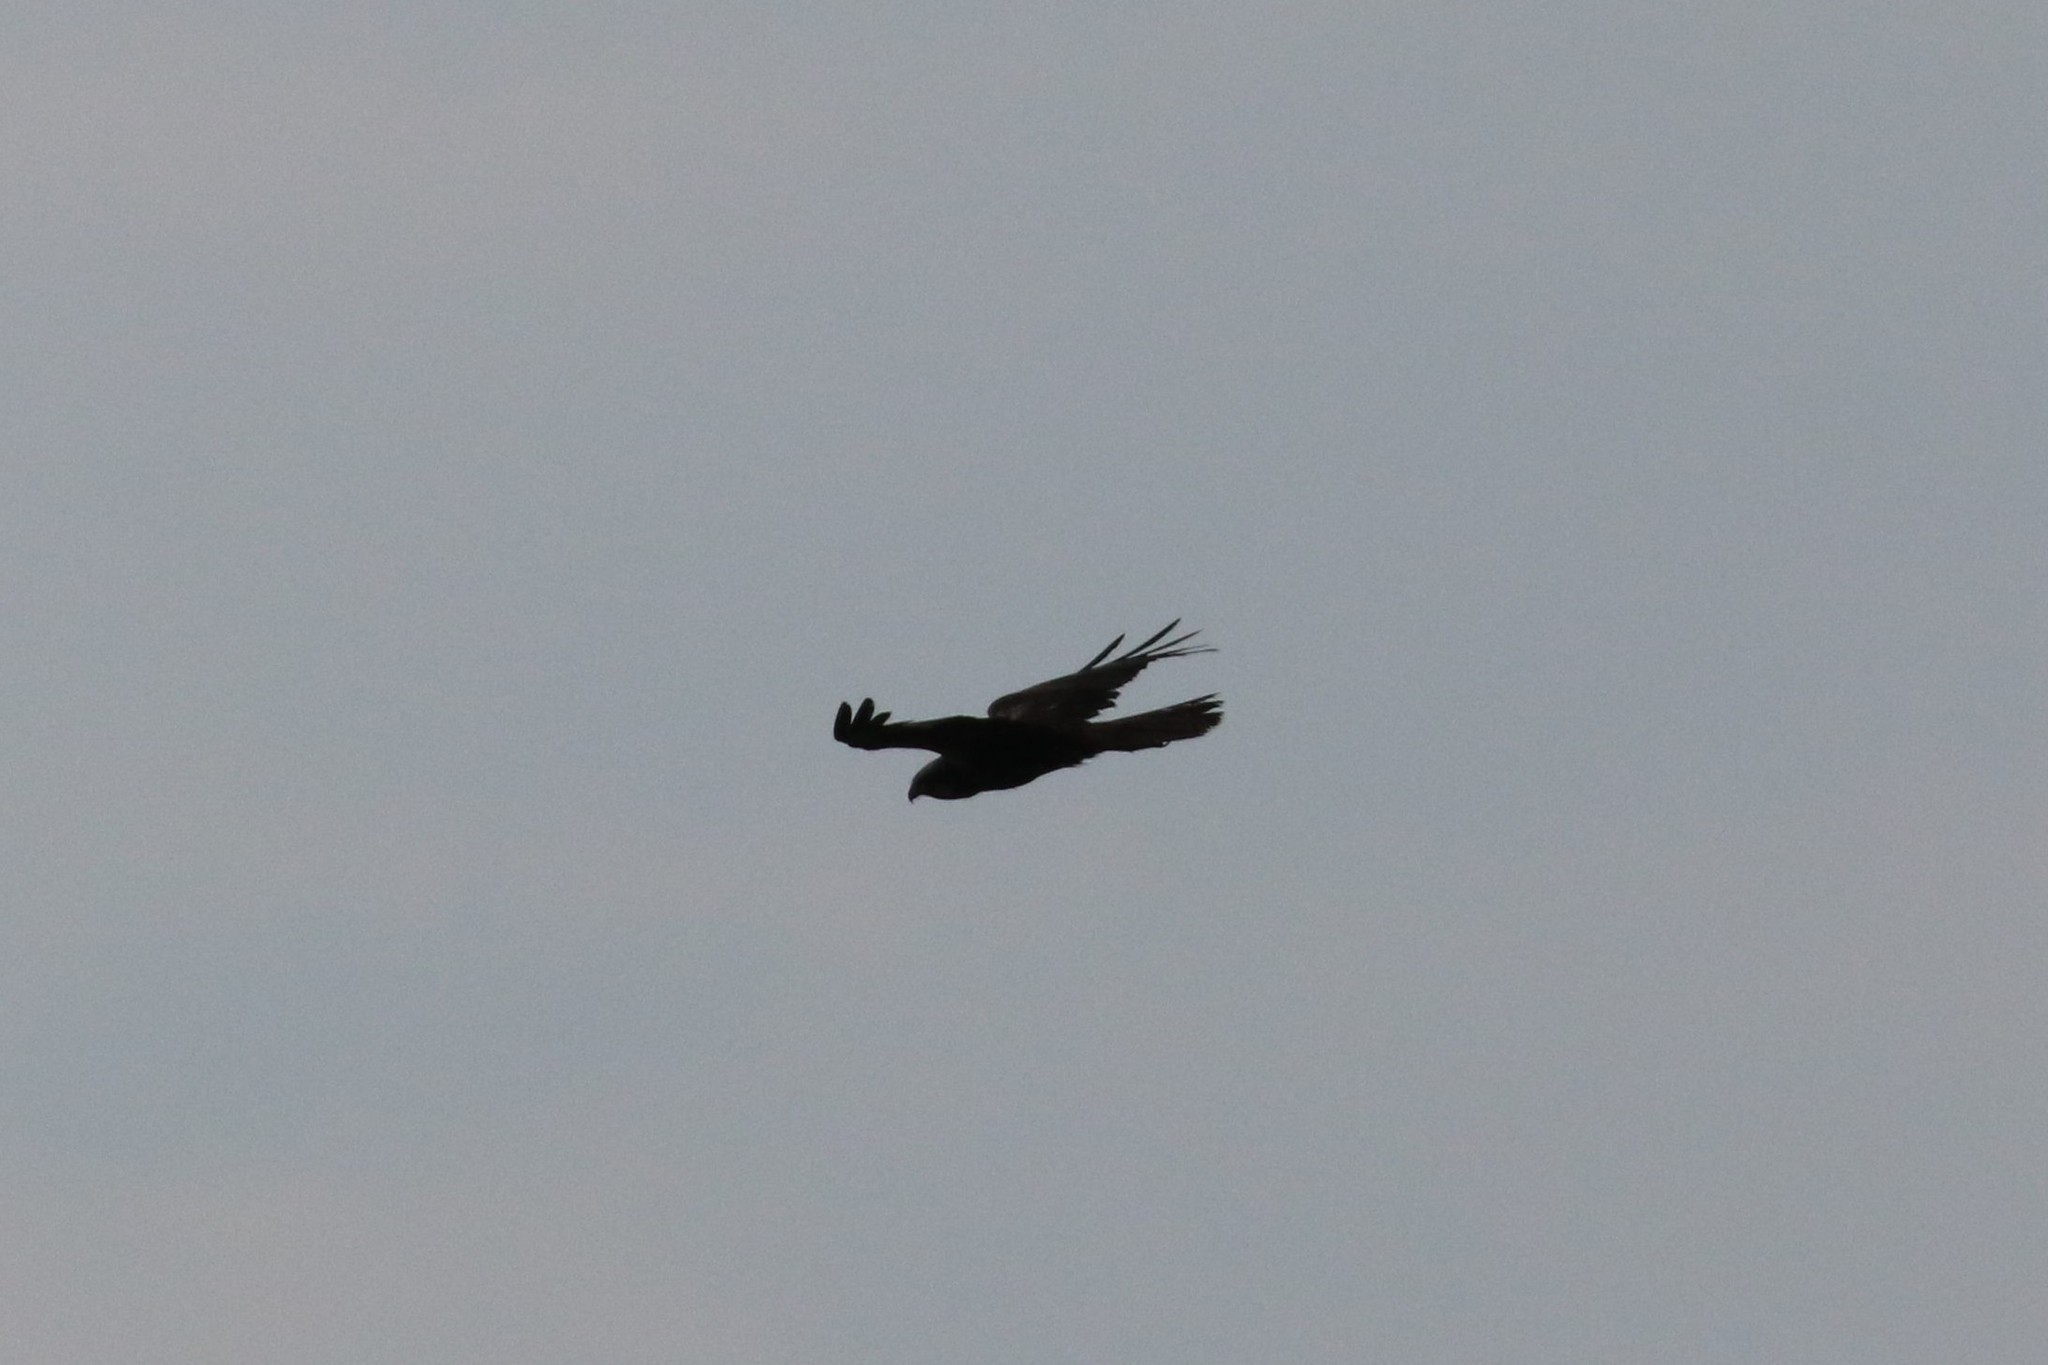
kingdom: Animalia
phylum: Chordata
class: Aves
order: Accipitriformes
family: Accipitridae
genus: Circus
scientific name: Circus aeruginosus
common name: Western marsh harrier
